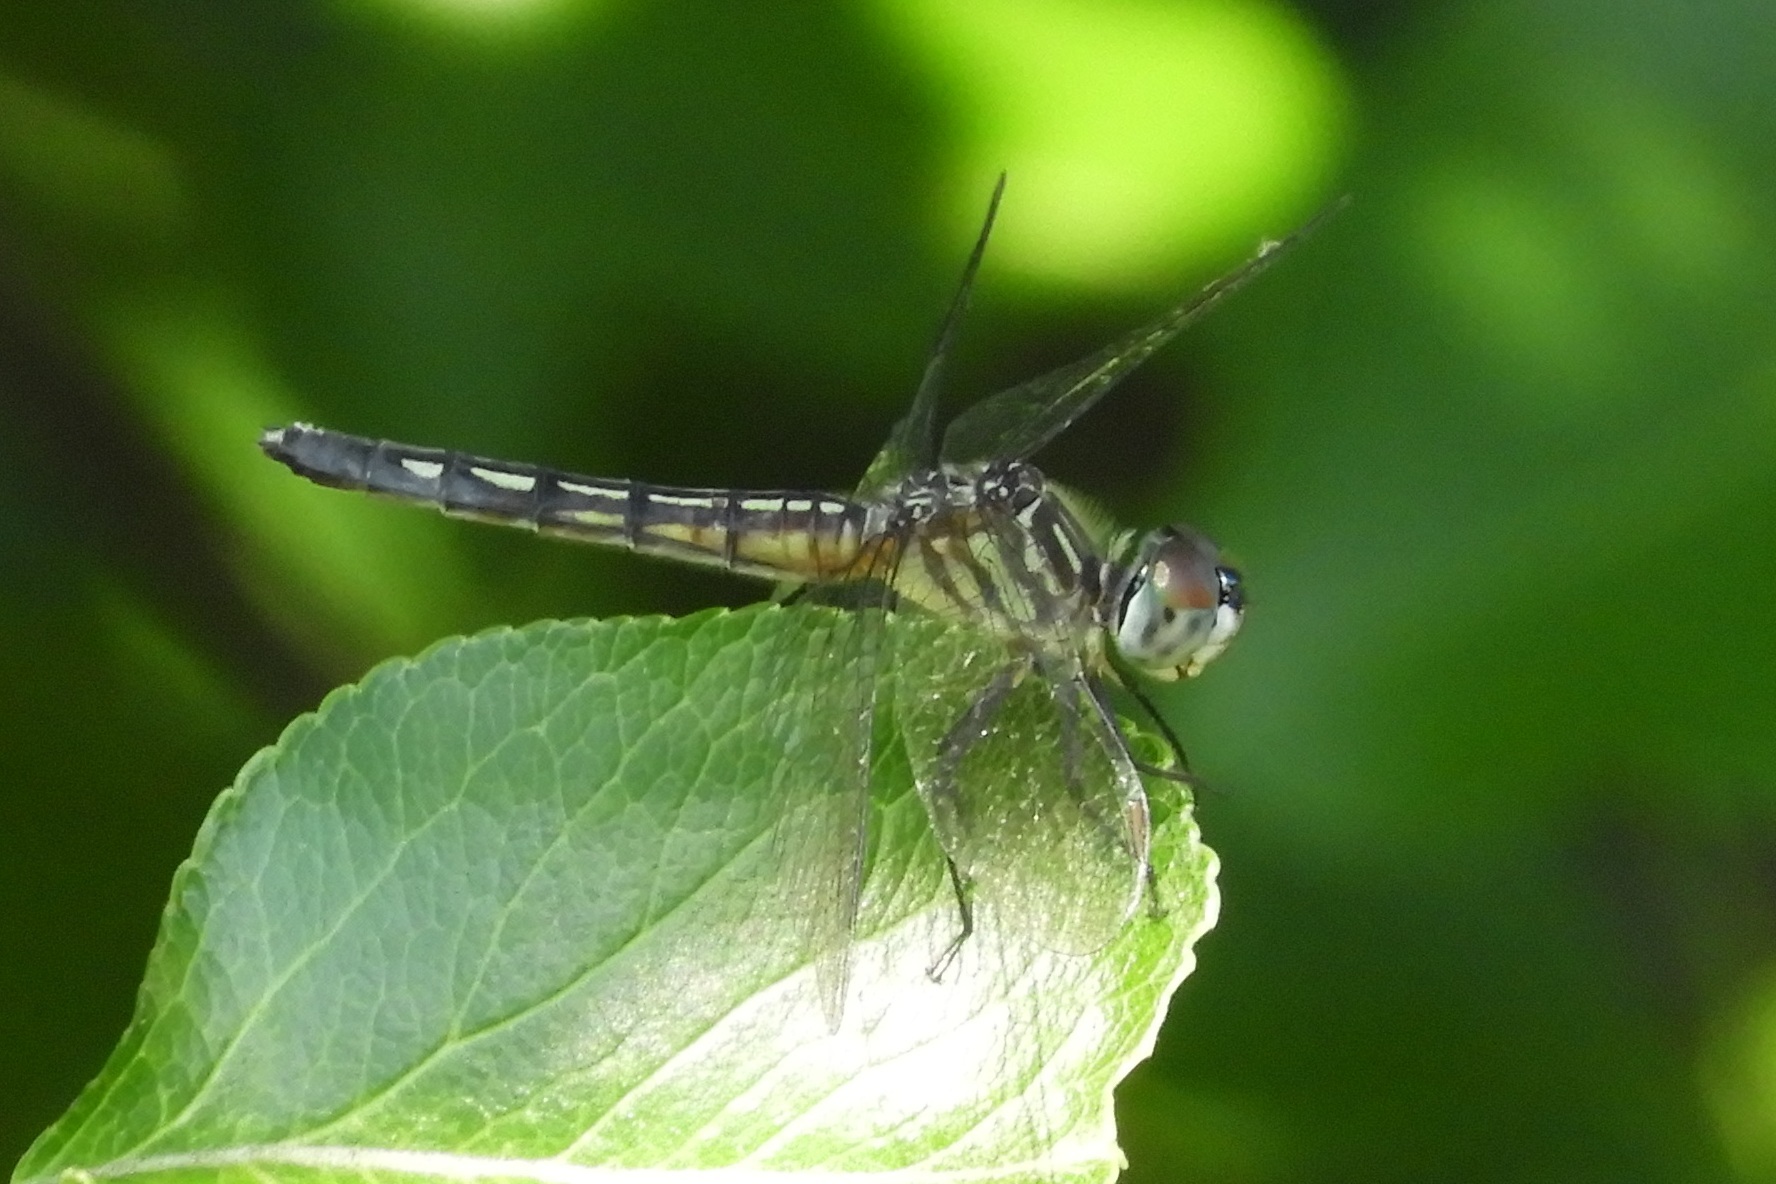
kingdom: Animalia
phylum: Arthropoda
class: Insecta
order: Odonata
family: Libellulidae
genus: Pachydiplax
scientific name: Pachydiplax longipennis
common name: Blue dasher
